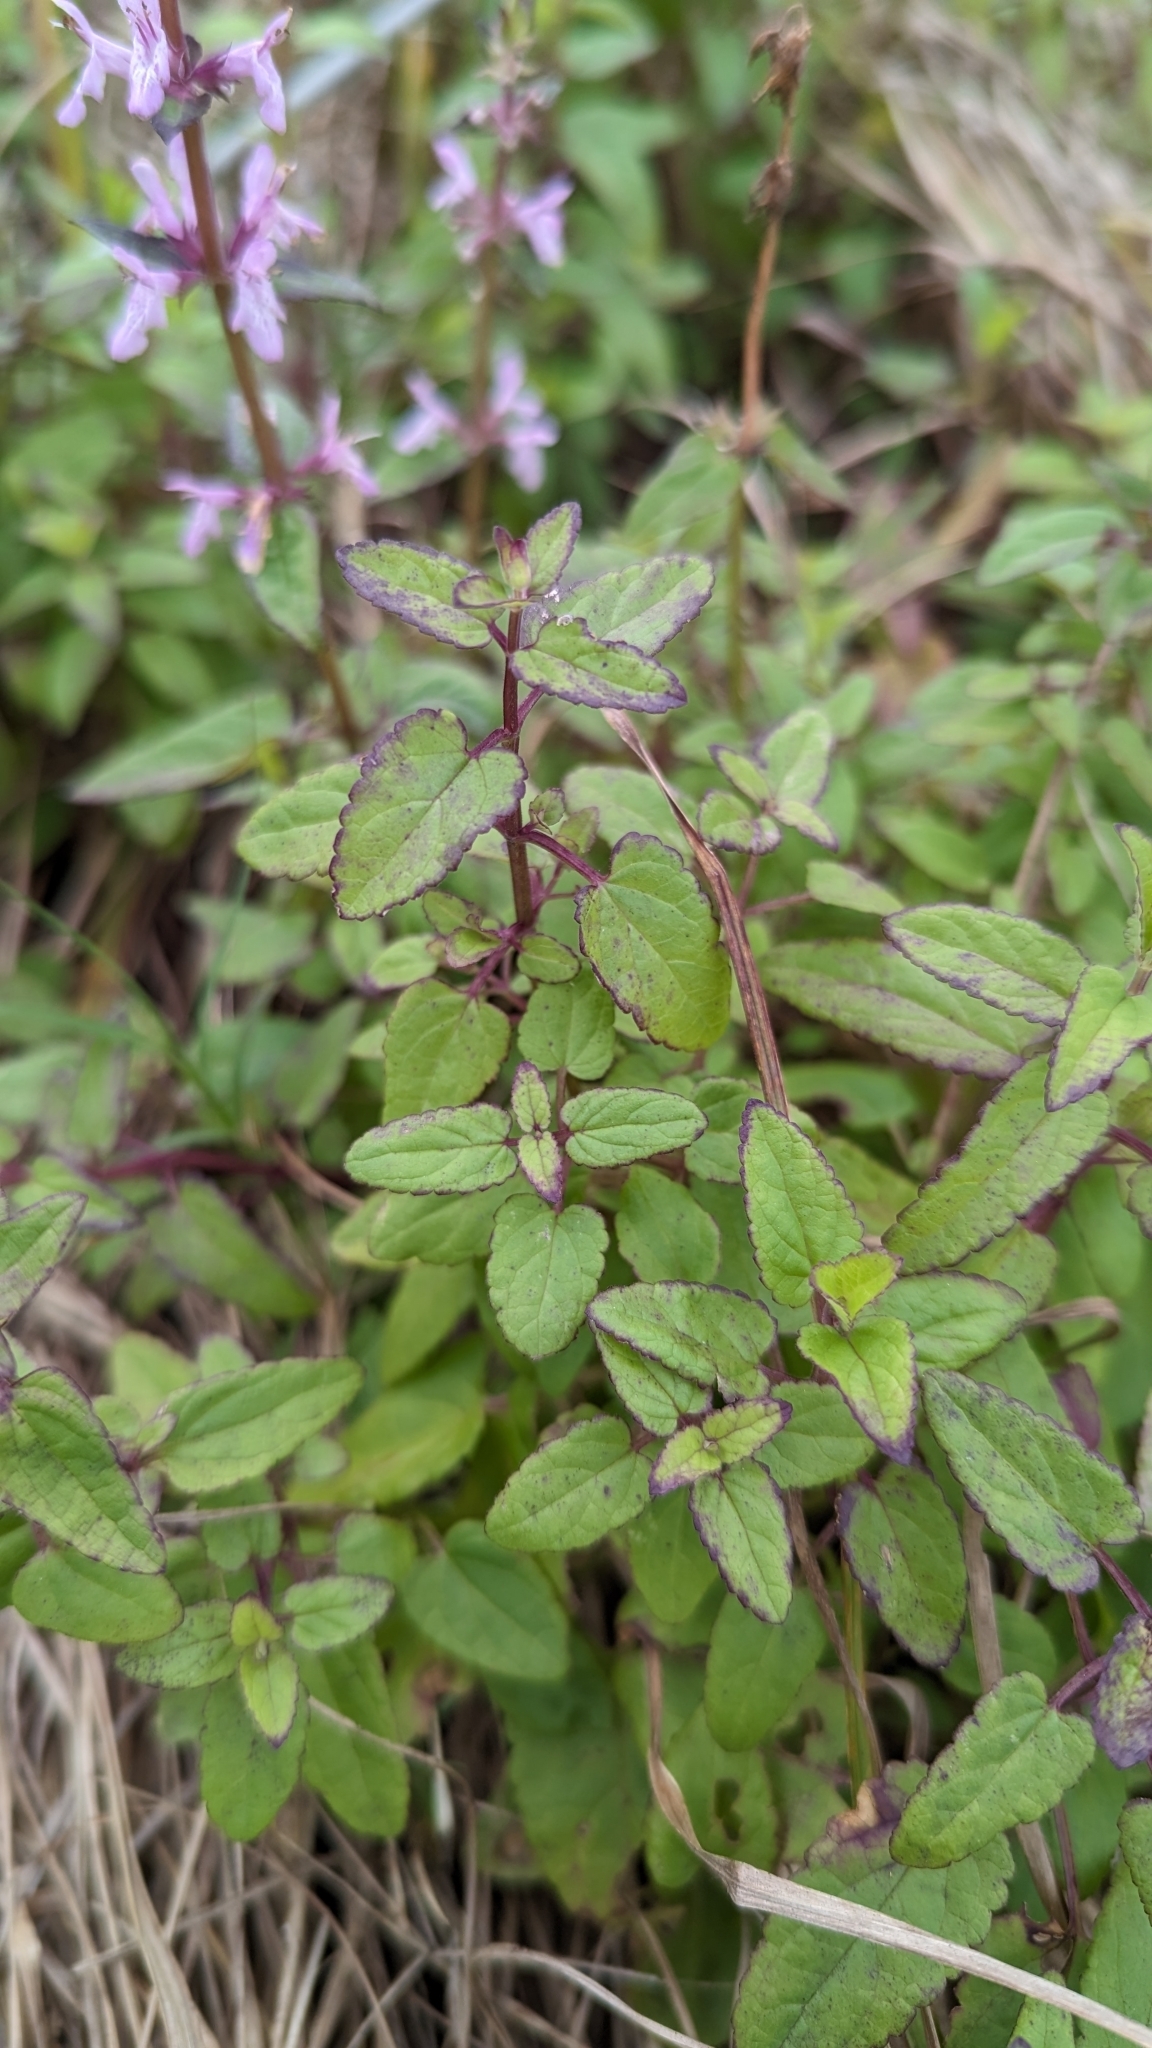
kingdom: Plantae
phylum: Tracheophyta
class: Magnoliopsida
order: Lamiales
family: Lamiaceae
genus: Stachys
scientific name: Stachys floridana
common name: Florida betony
